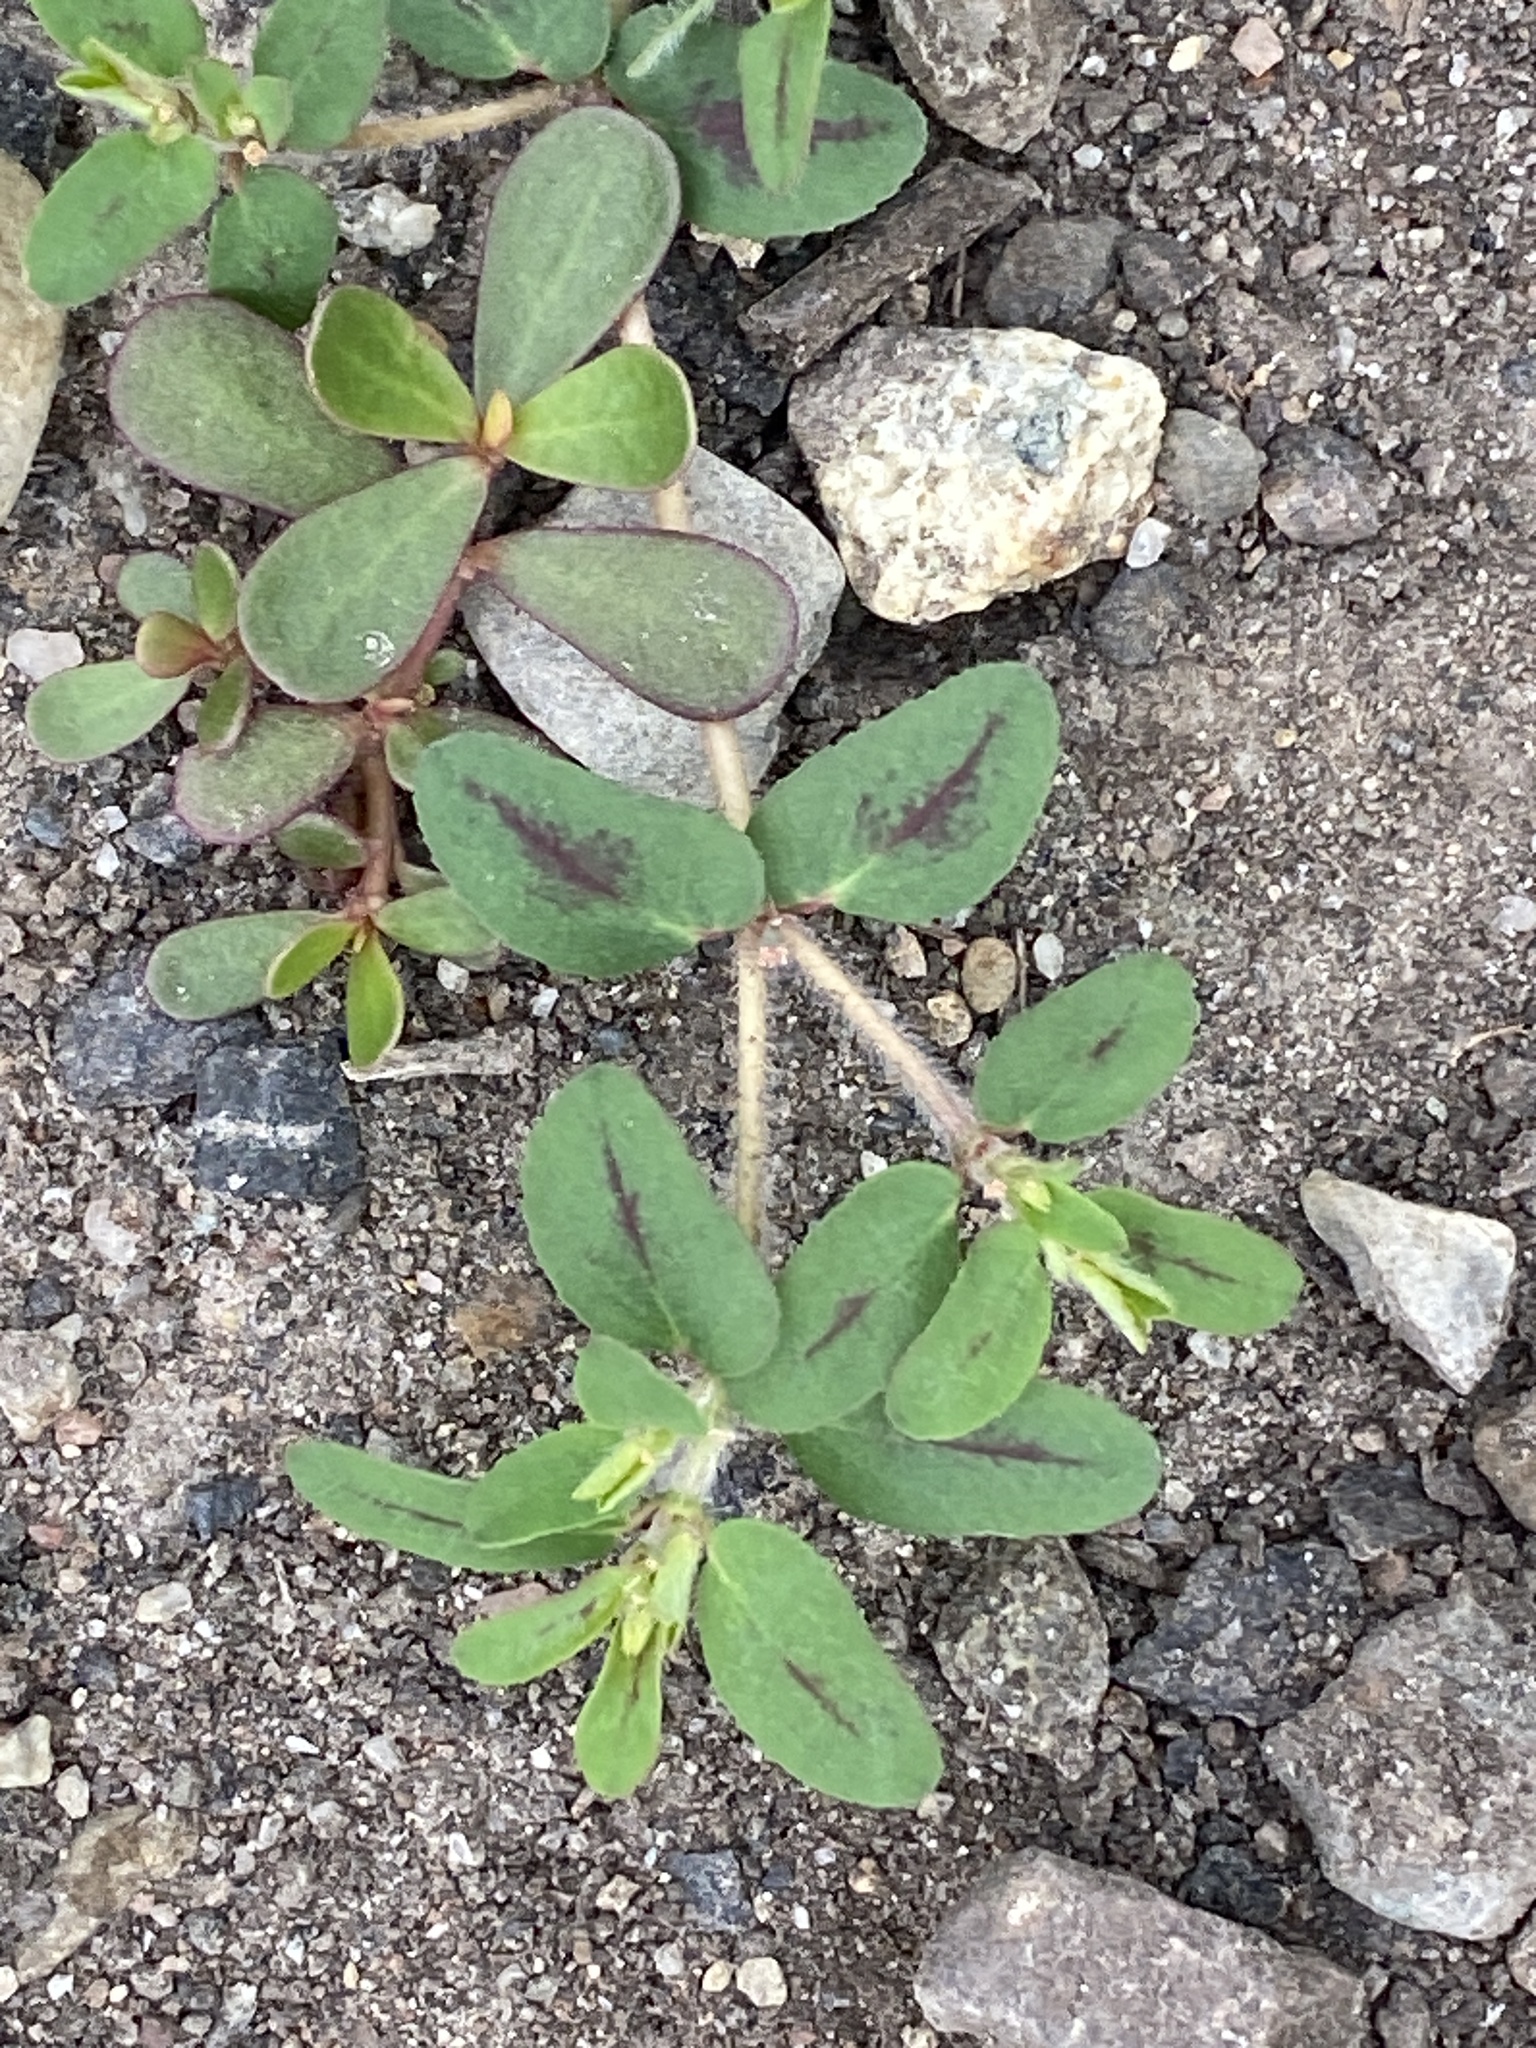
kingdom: Plantae
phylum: Tracheophyta
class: Magnoliopsida
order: Malpighiales
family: Euphorbiaceae
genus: Euphorbia
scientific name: Euphorbia maculata
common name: Spotted spurge
